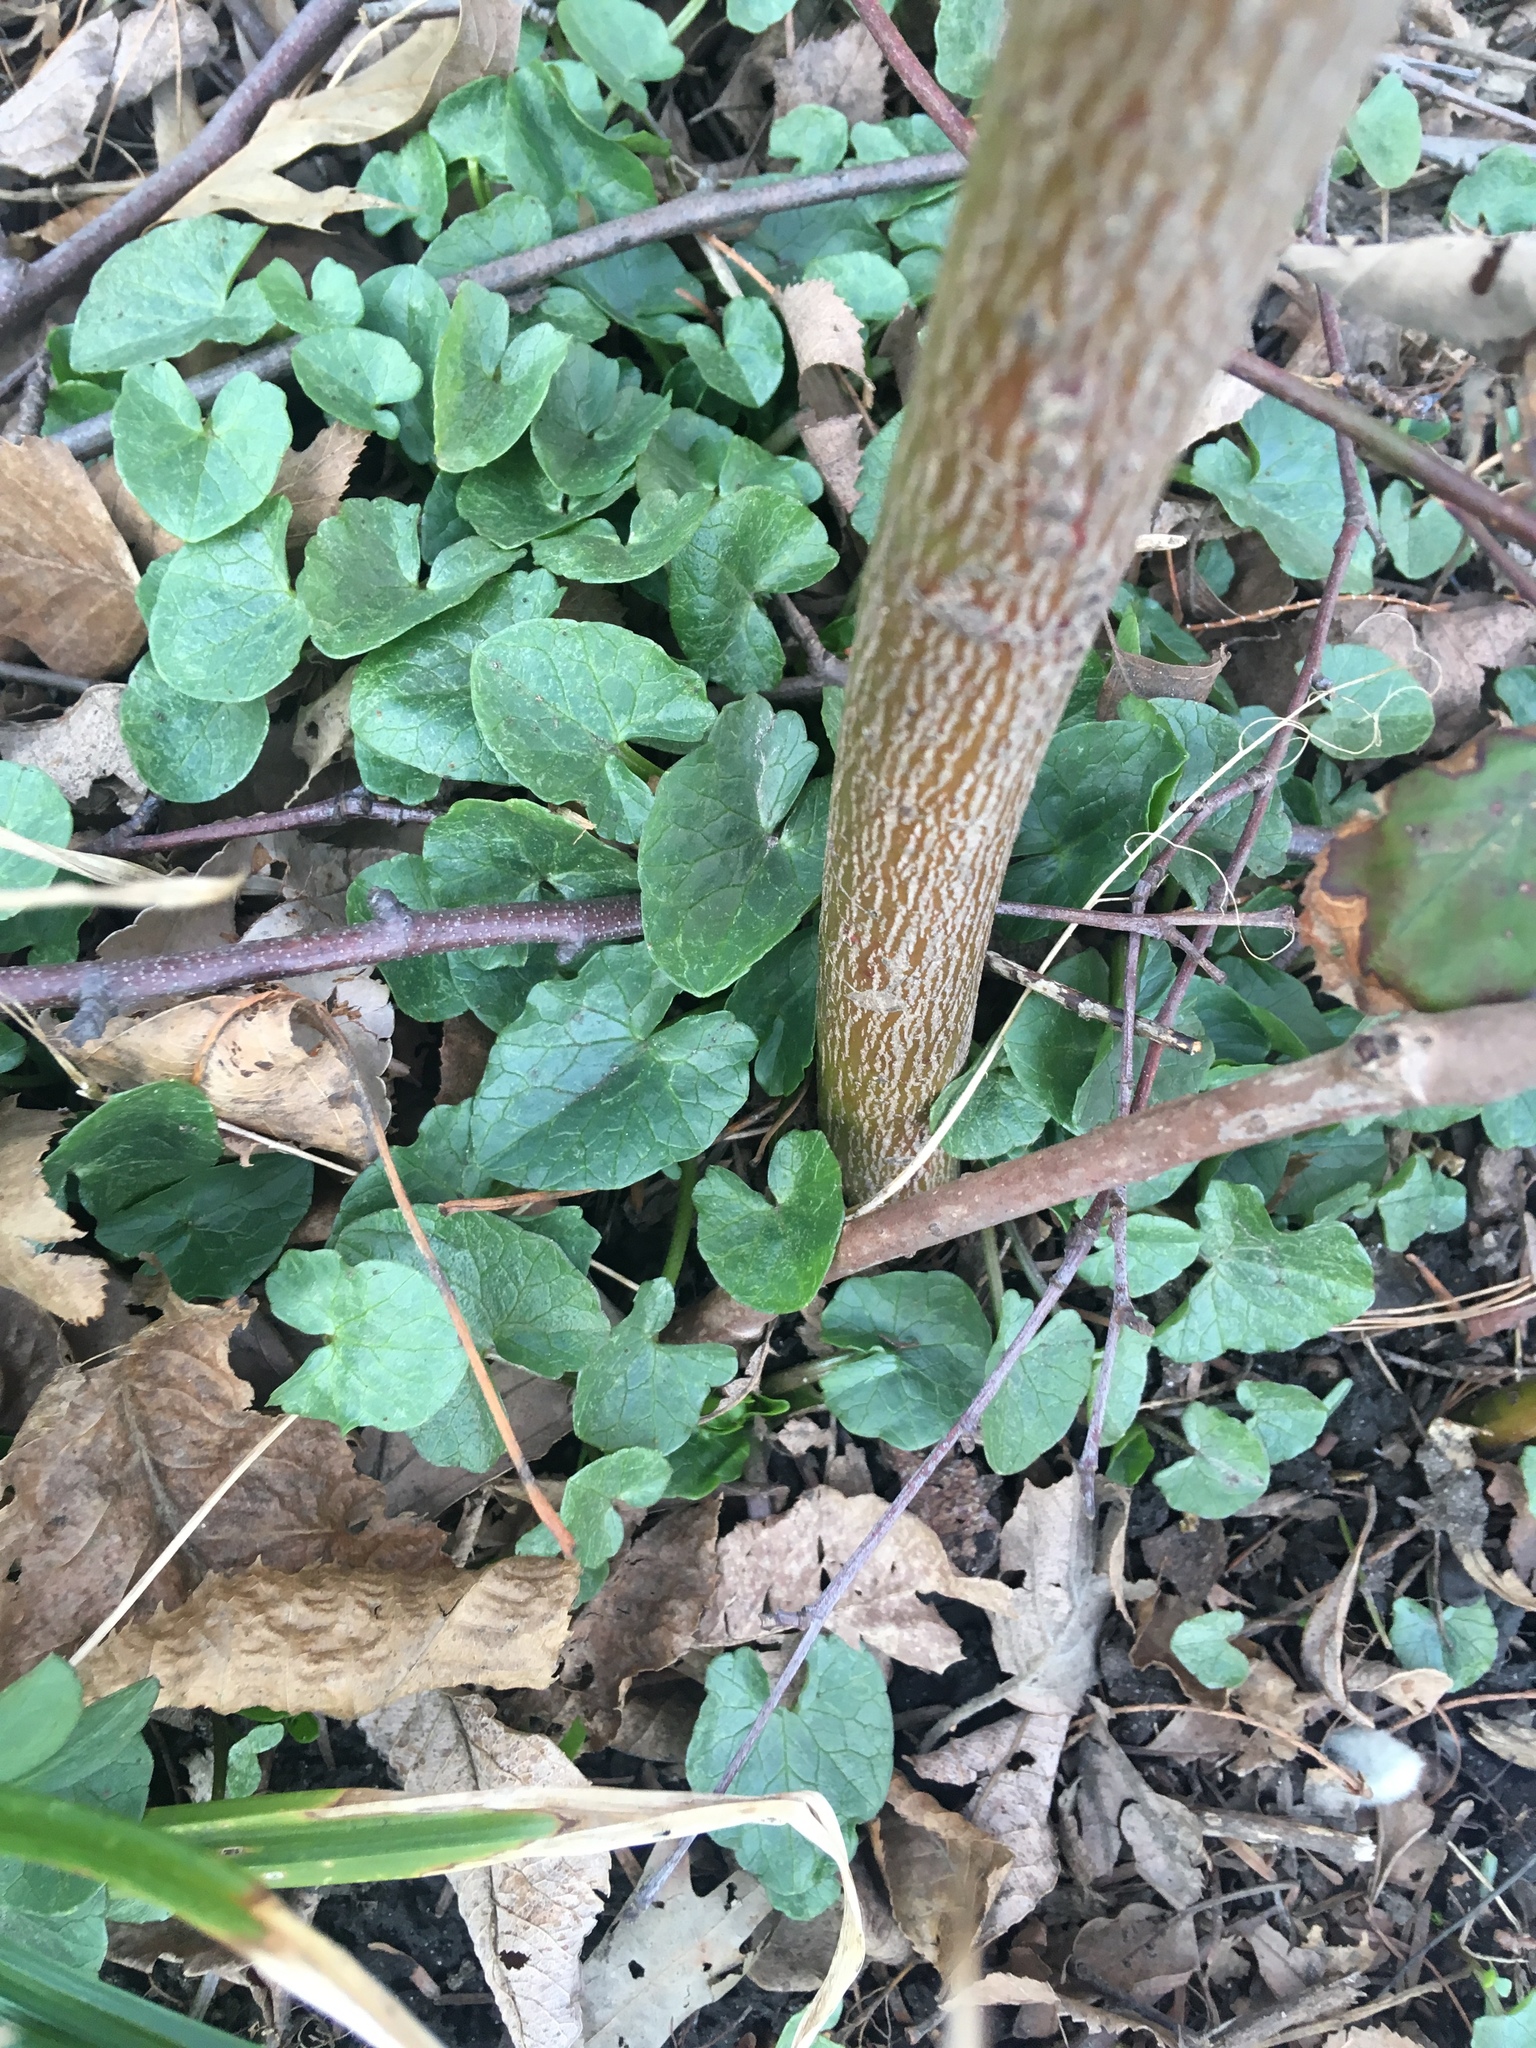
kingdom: Plantae
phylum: Tracheophyta
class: Magnoliopsida
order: Ranunculales
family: Ranunculaceae
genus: Ficaria
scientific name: Ficaria verna
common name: Lesser celandine
